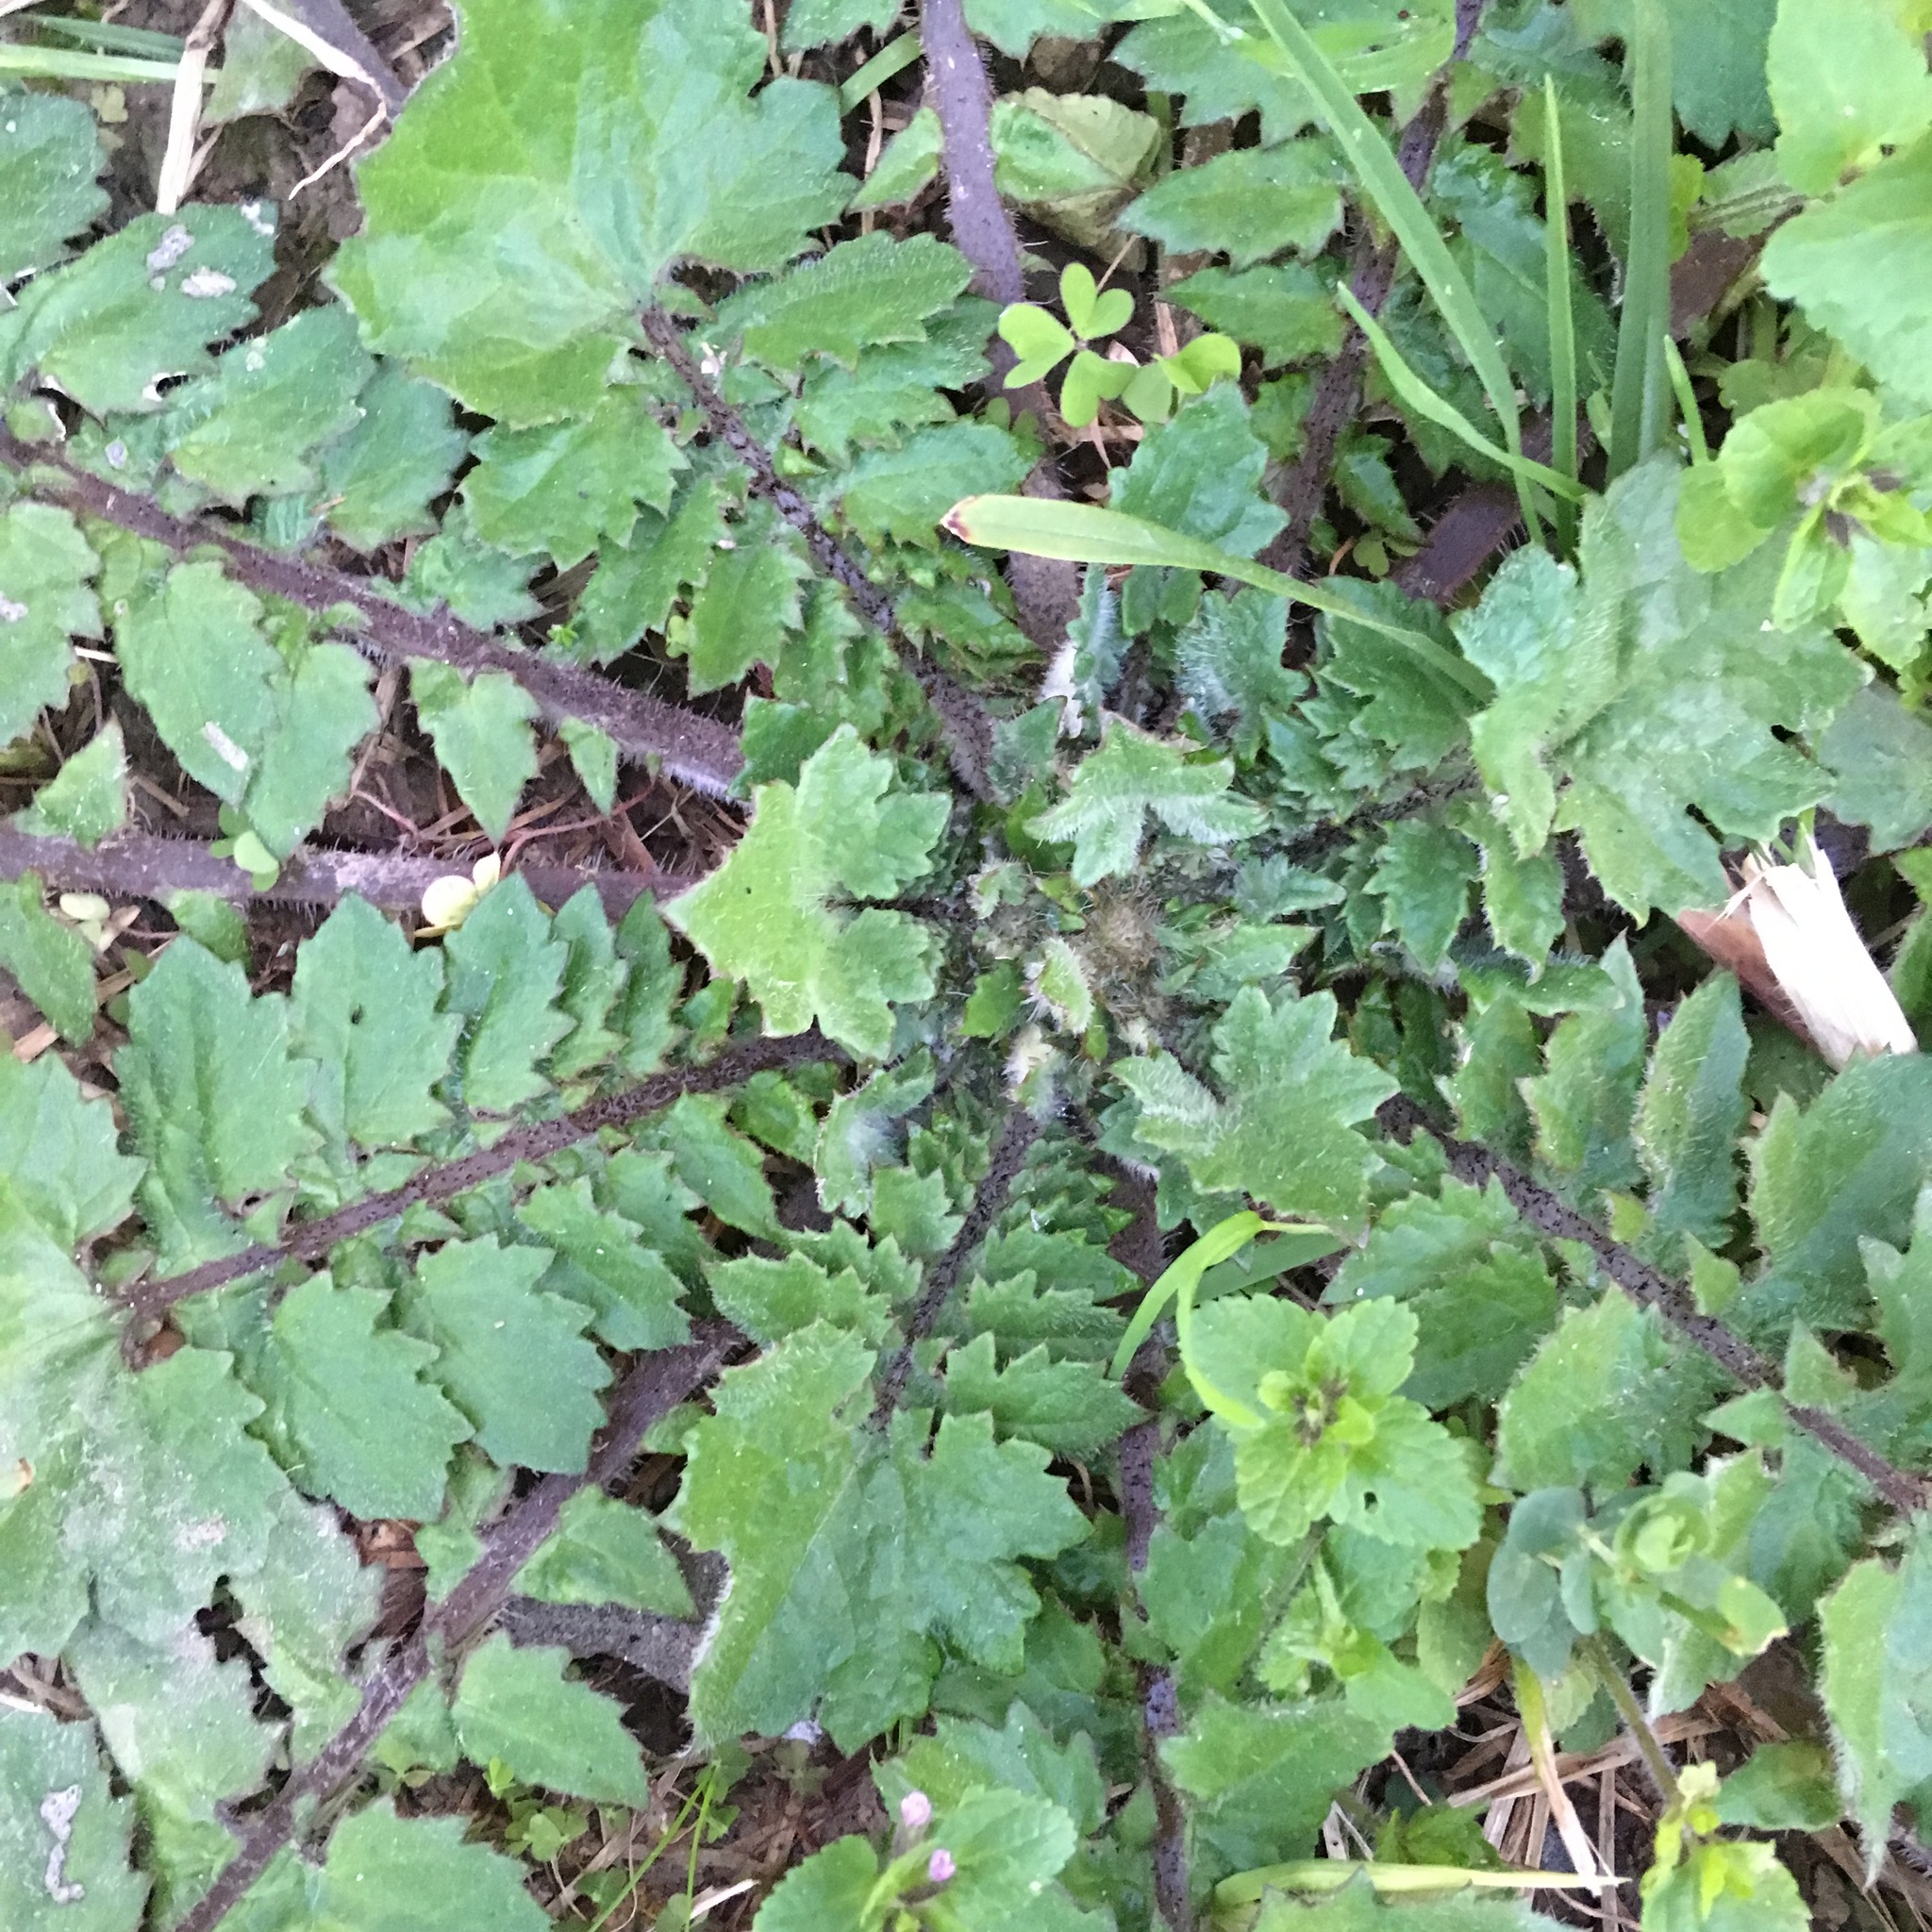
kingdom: Plantae
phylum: Tracheophyta
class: Magnoliopsida
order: Asterales
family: Asteraceae
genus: Arctotheca
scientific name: Arctotheca calendula
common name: Capeweed
